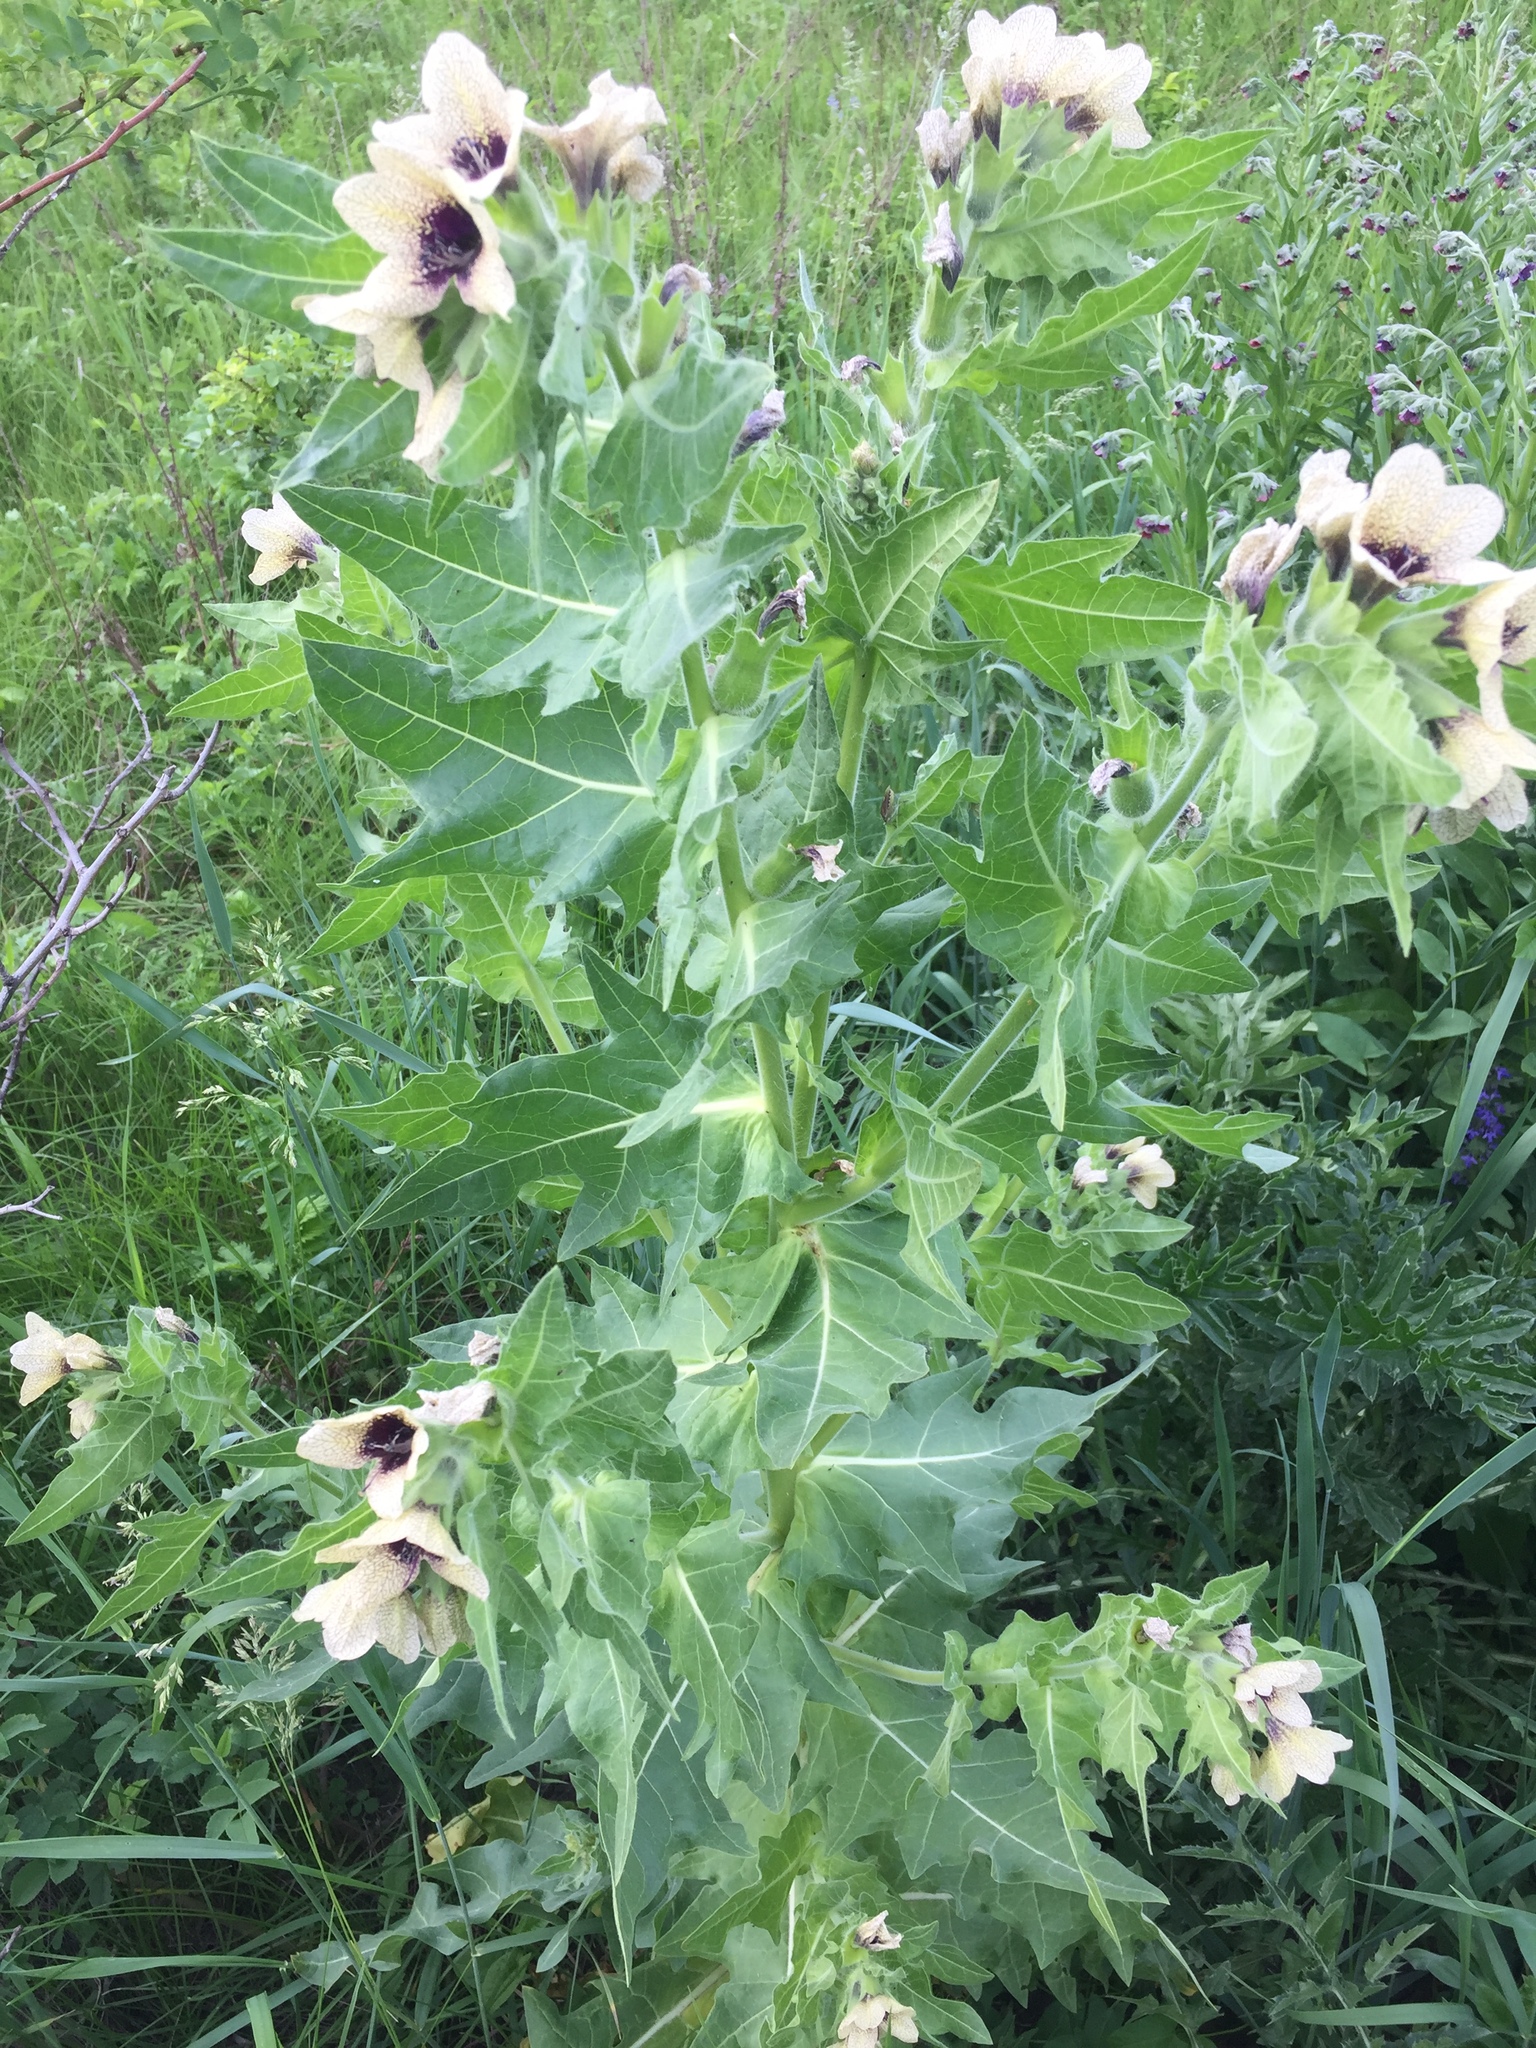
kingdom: Plantae
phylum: Tracheophyta
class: Magnoliopsida
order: Solanales
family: Solanaceae
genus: Hyoscyamus
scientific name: Hyoscyamus niger
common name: Henbane
